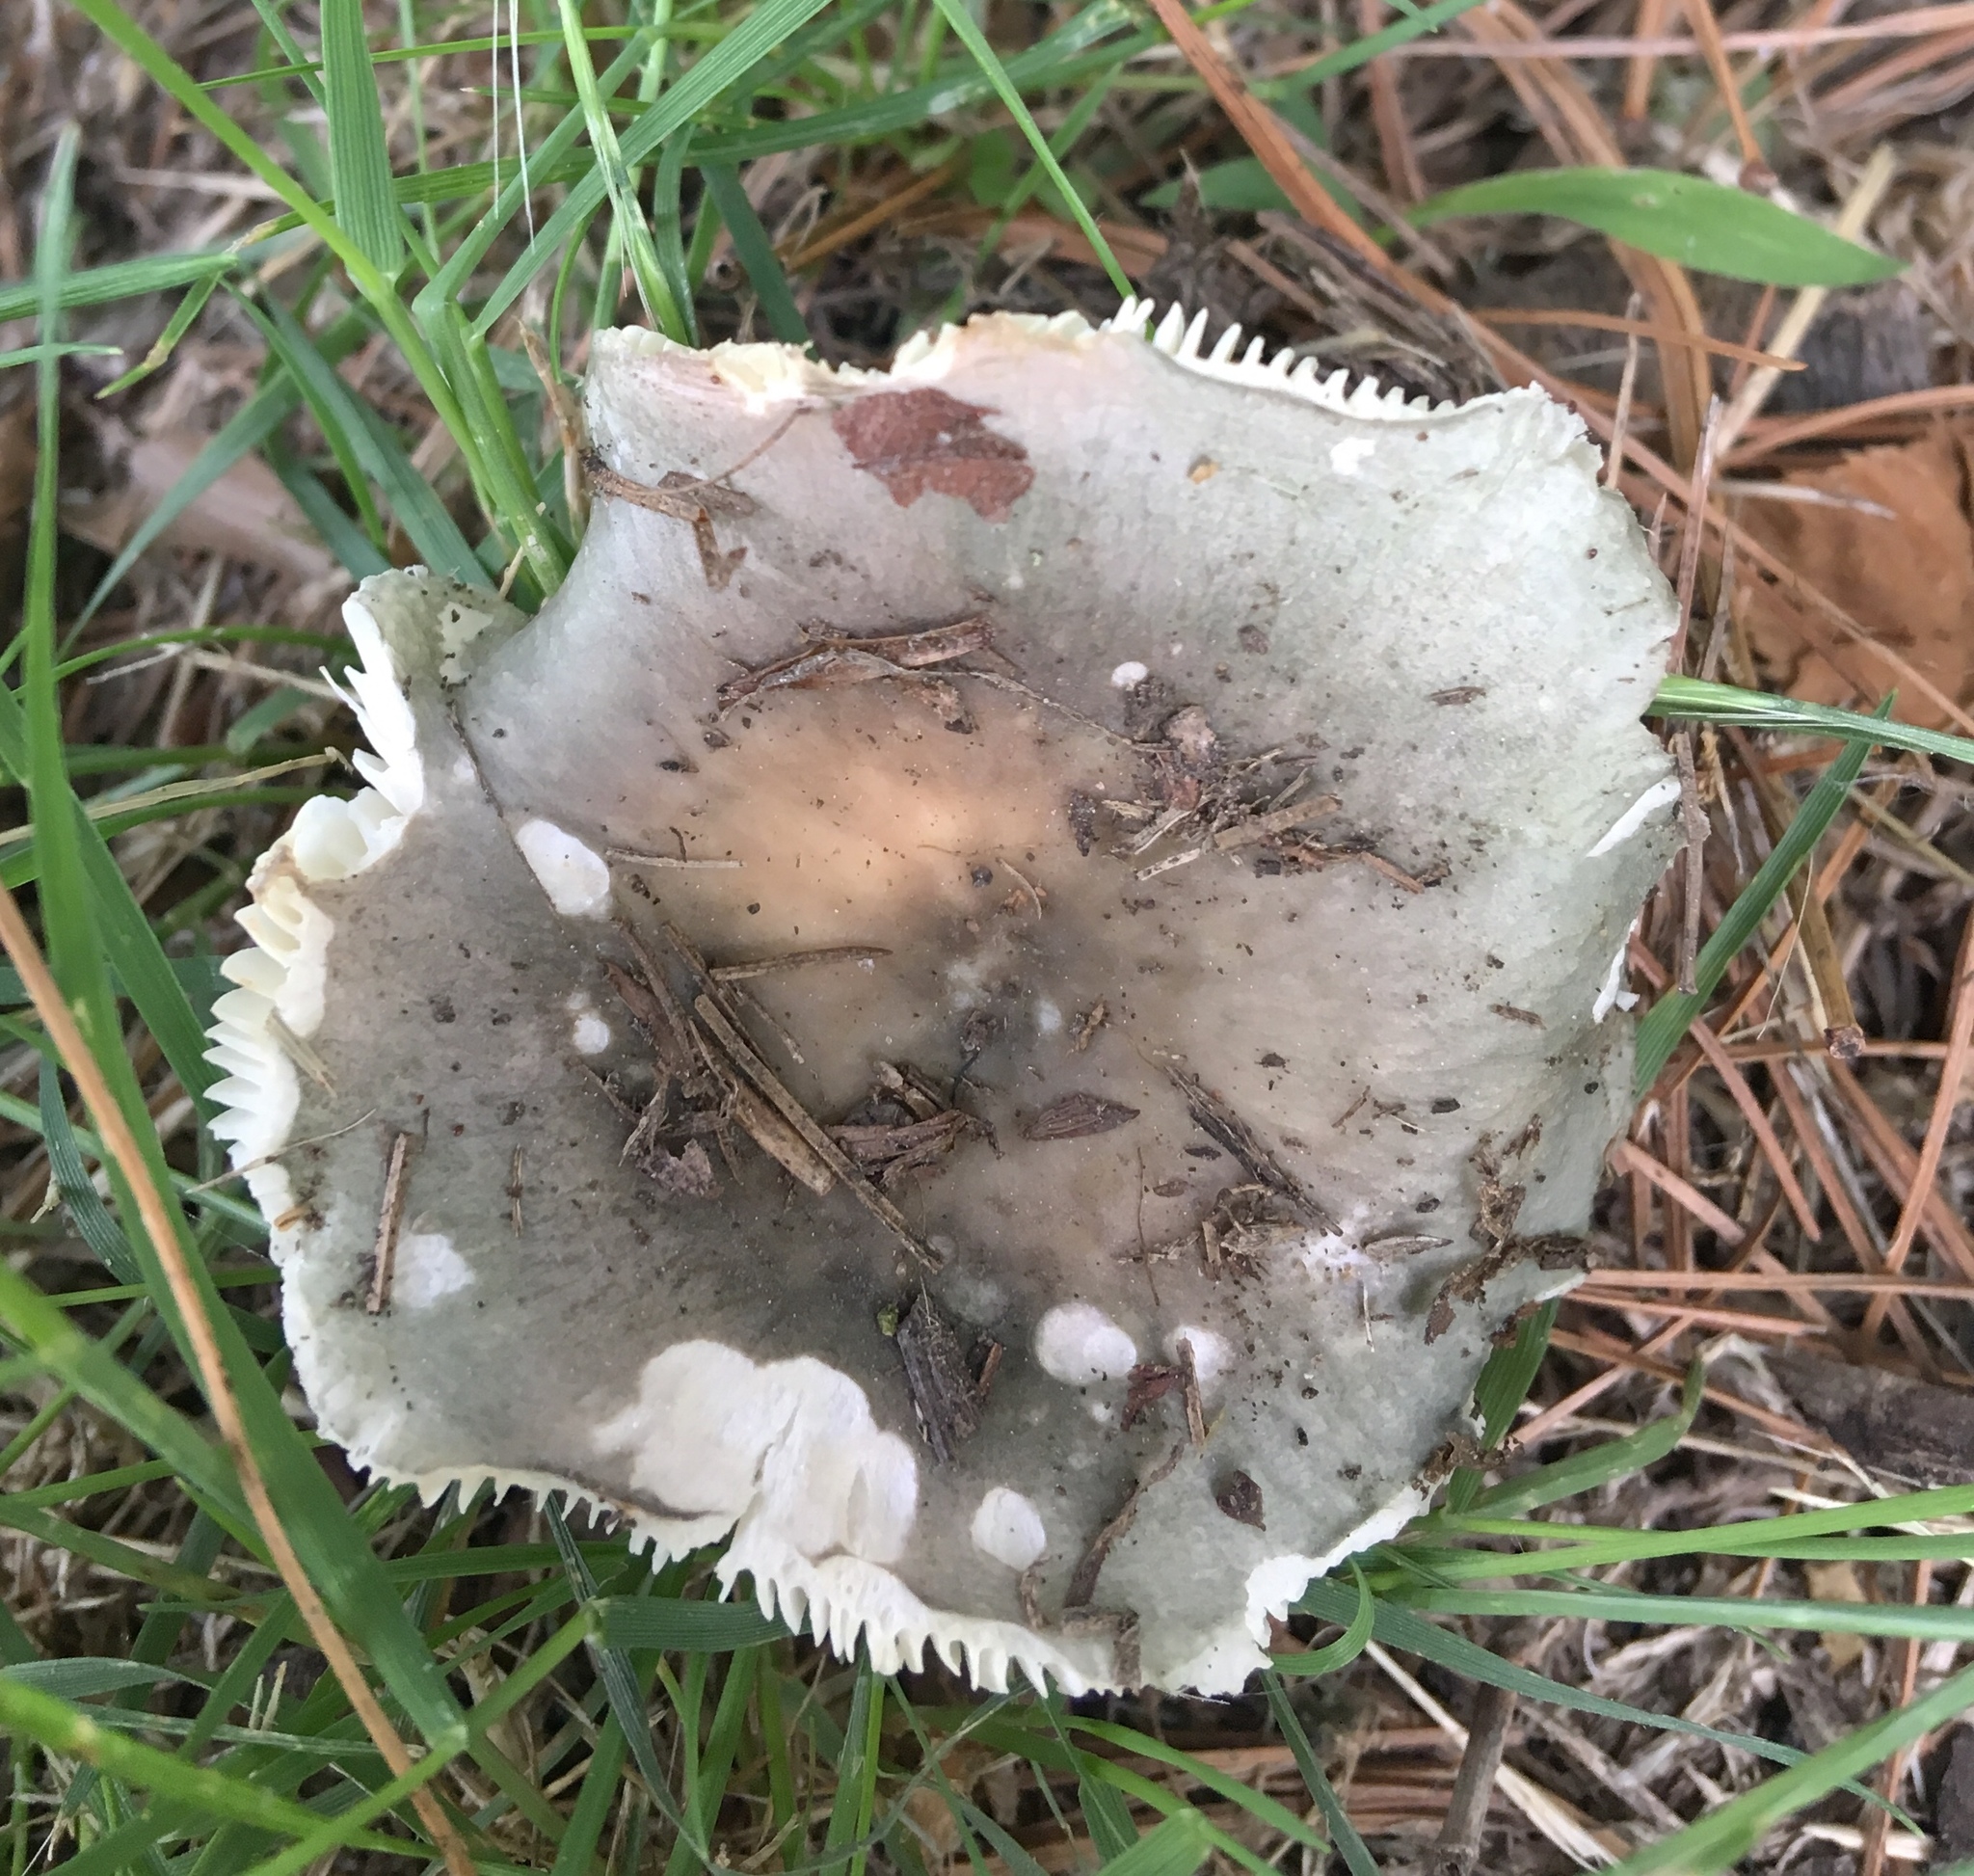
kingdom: Fungi
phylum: Basidiomycota
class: Agaricomycetes
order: Russulales
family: Russulaceae
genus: Russula
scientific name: Russula cyanoxantha
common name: Charcoal burner
